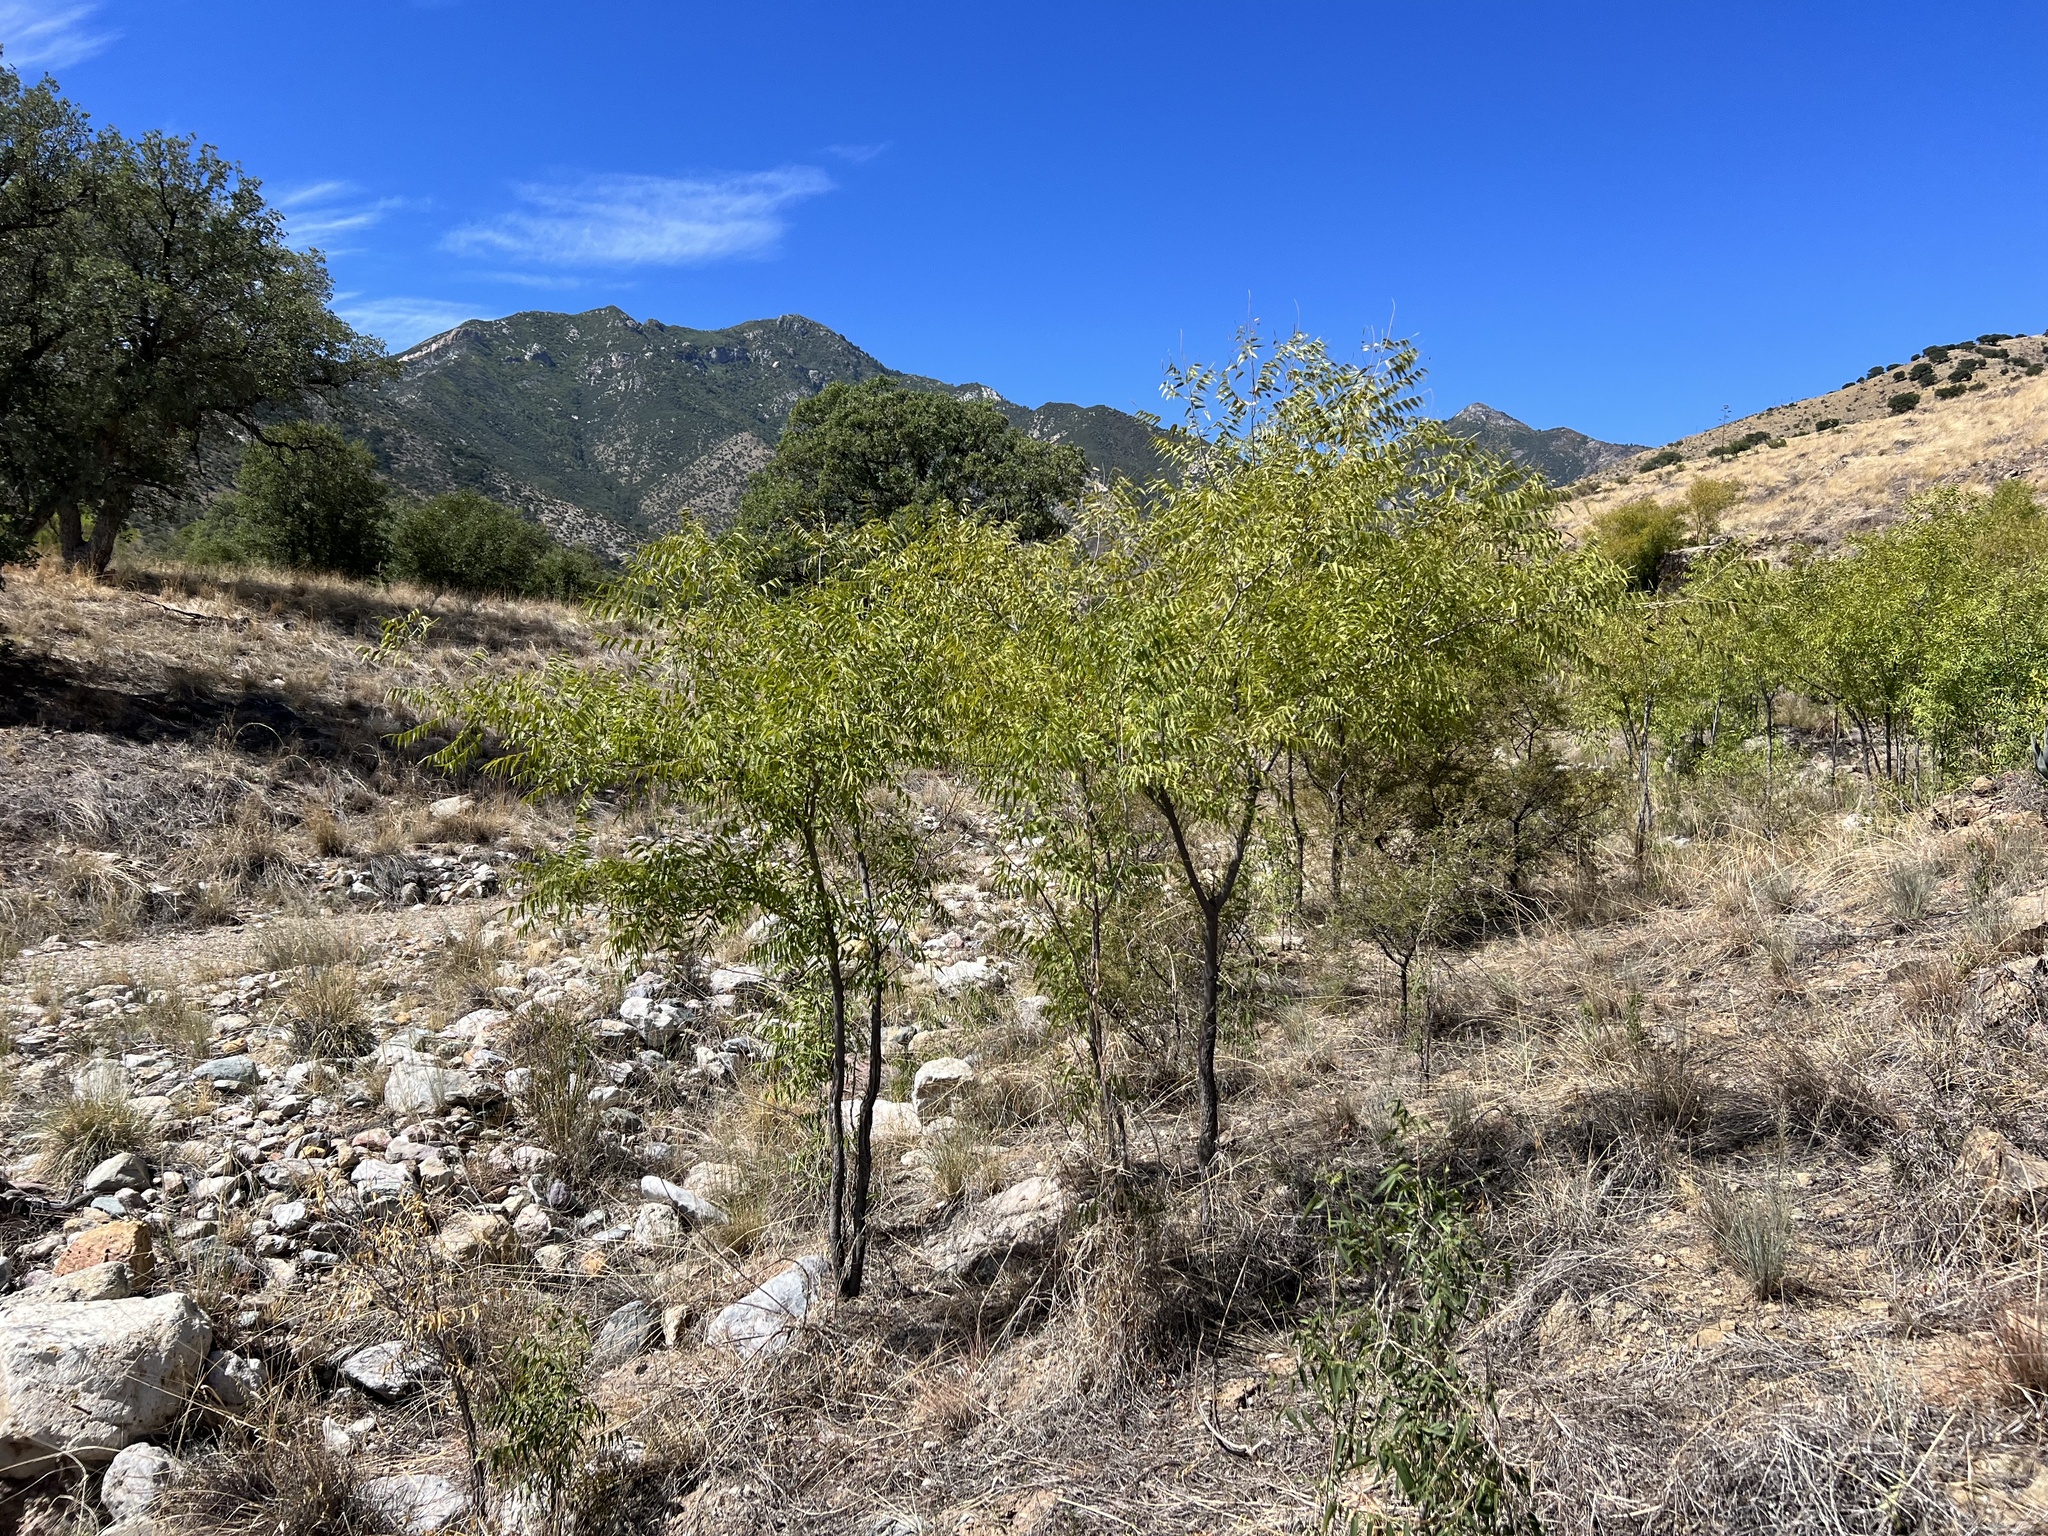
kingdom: Plantae
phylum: Tracheophyta
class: Magnoliopsida
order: Fagales
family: Juglandaceae
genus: Juglans
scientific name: Juglans major
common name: Arizona walnut
